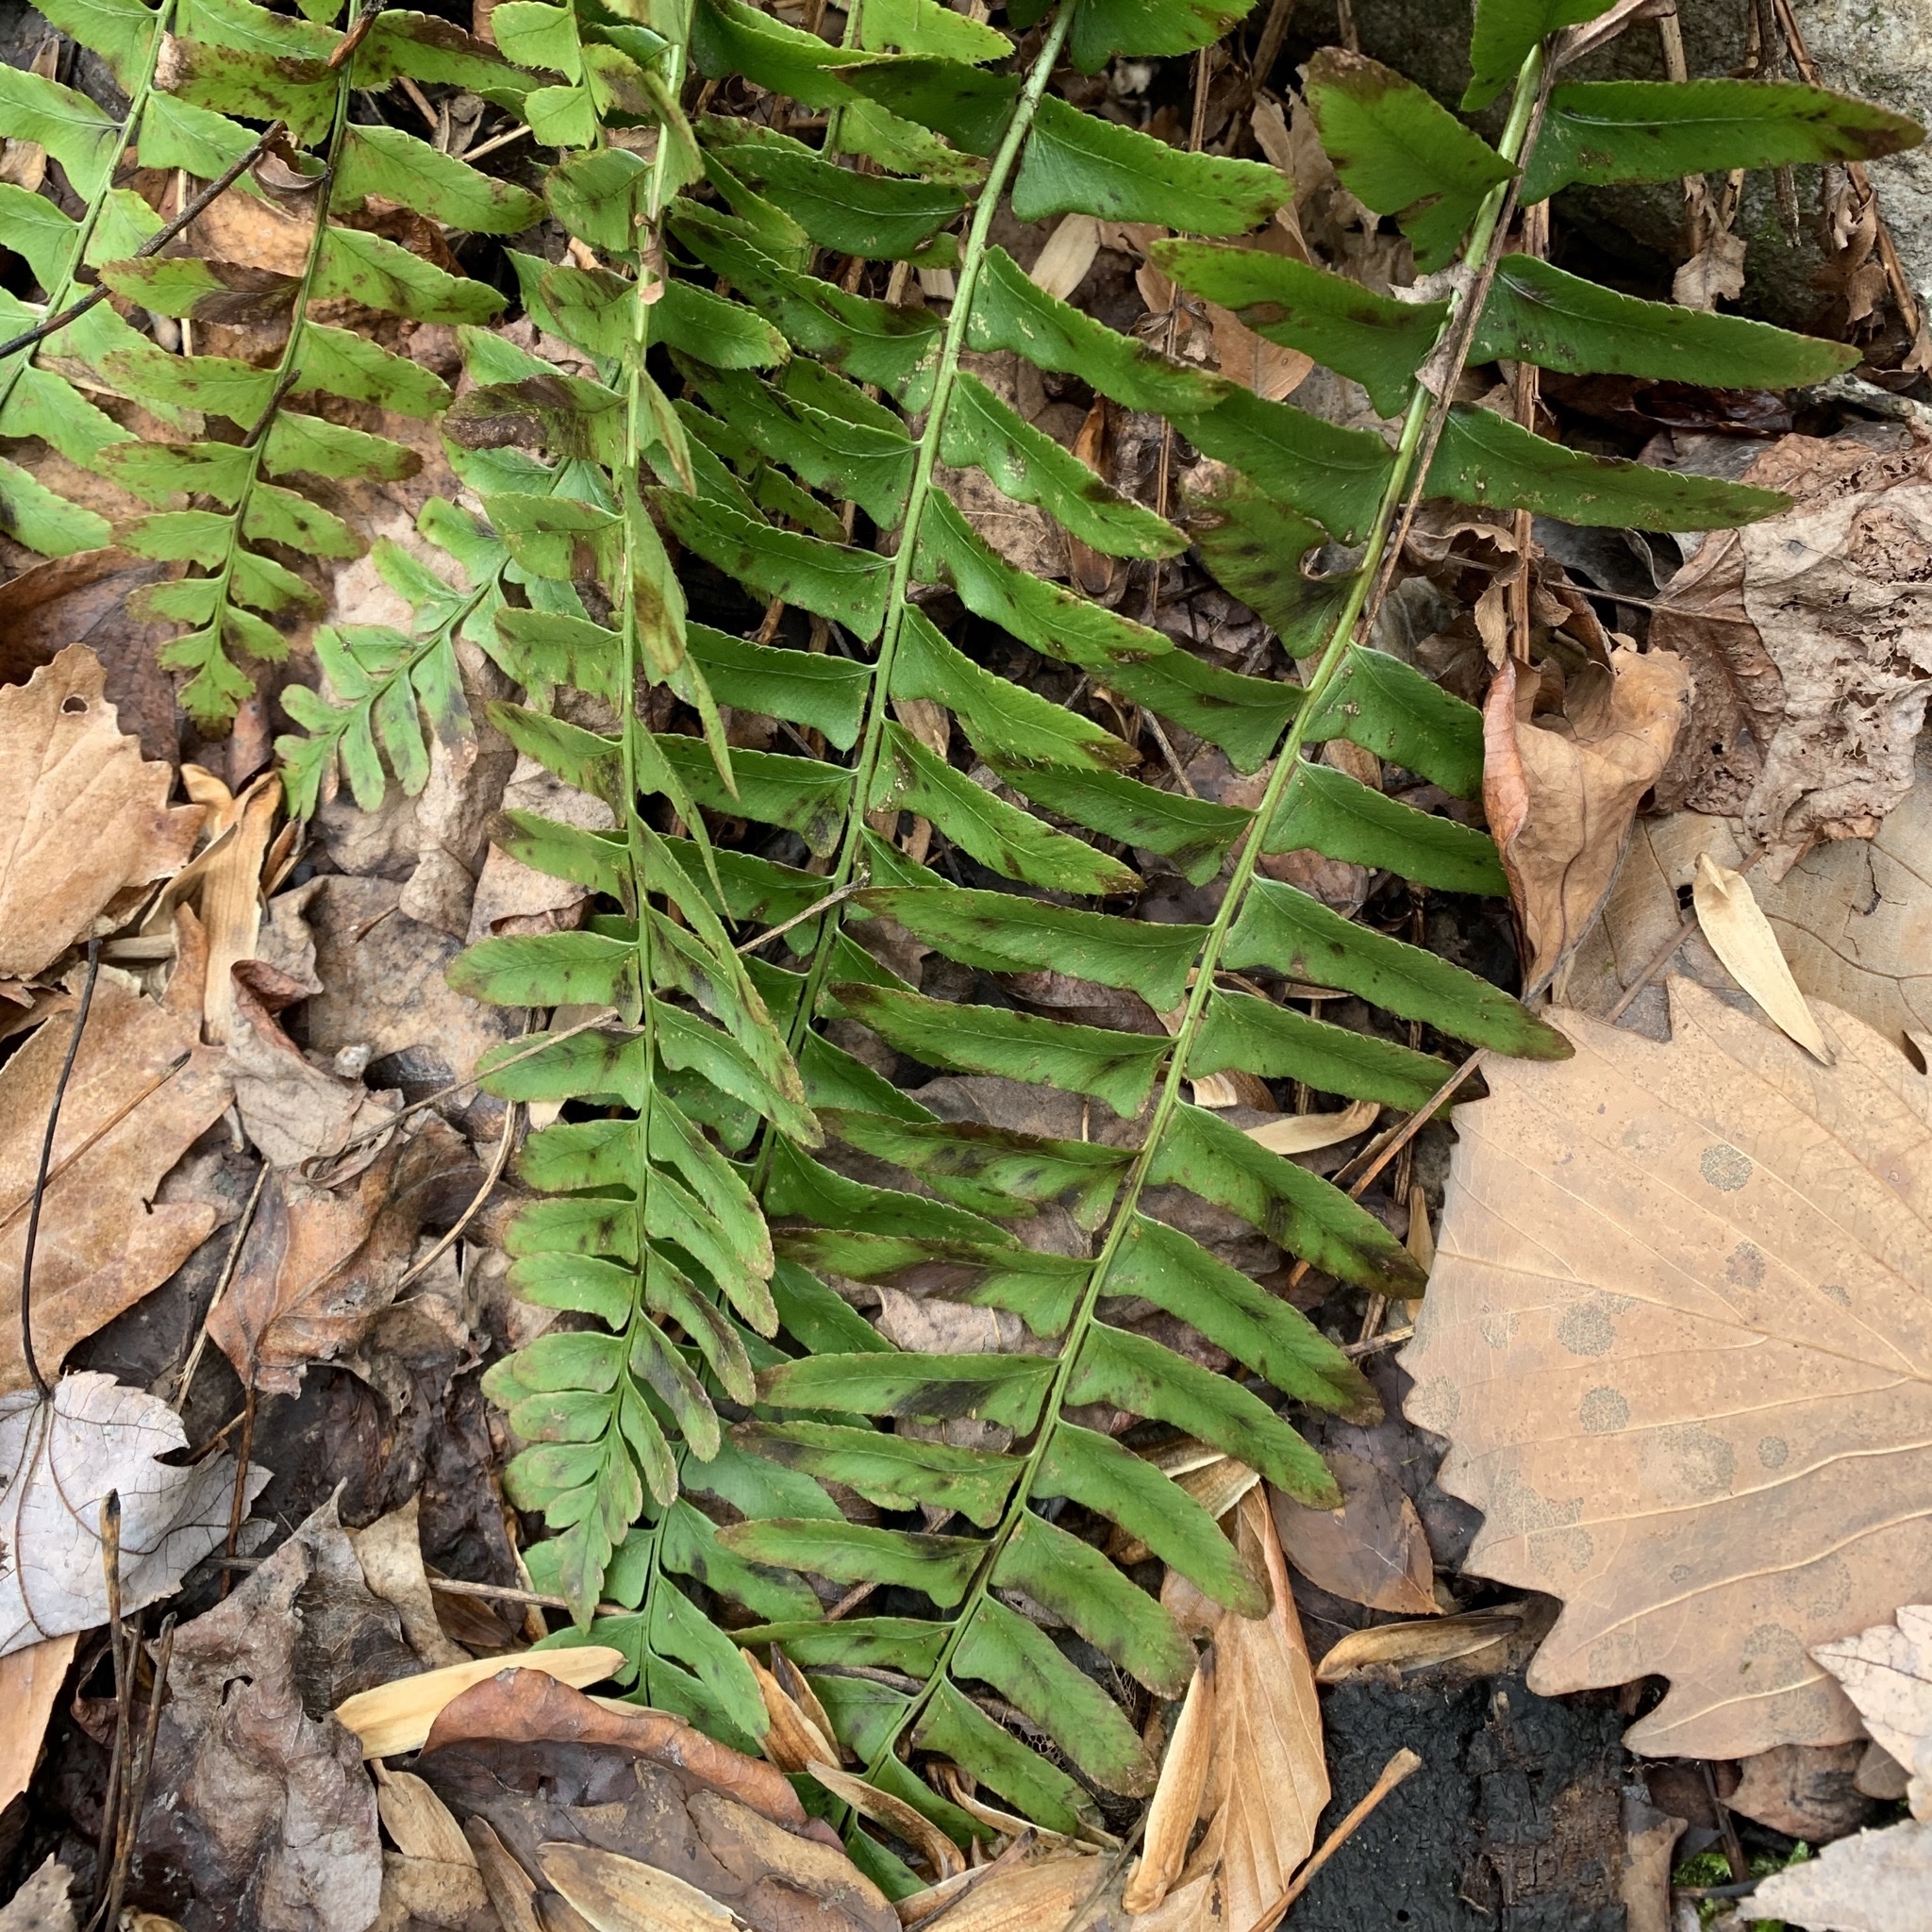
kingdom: Plantae
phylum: Tracheophyta
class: Polypodiopsida
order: Polypodiales
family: Dryopteridaceae
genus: Polystichum
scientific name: Polystichum acrostichoides
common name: Christmas fern
